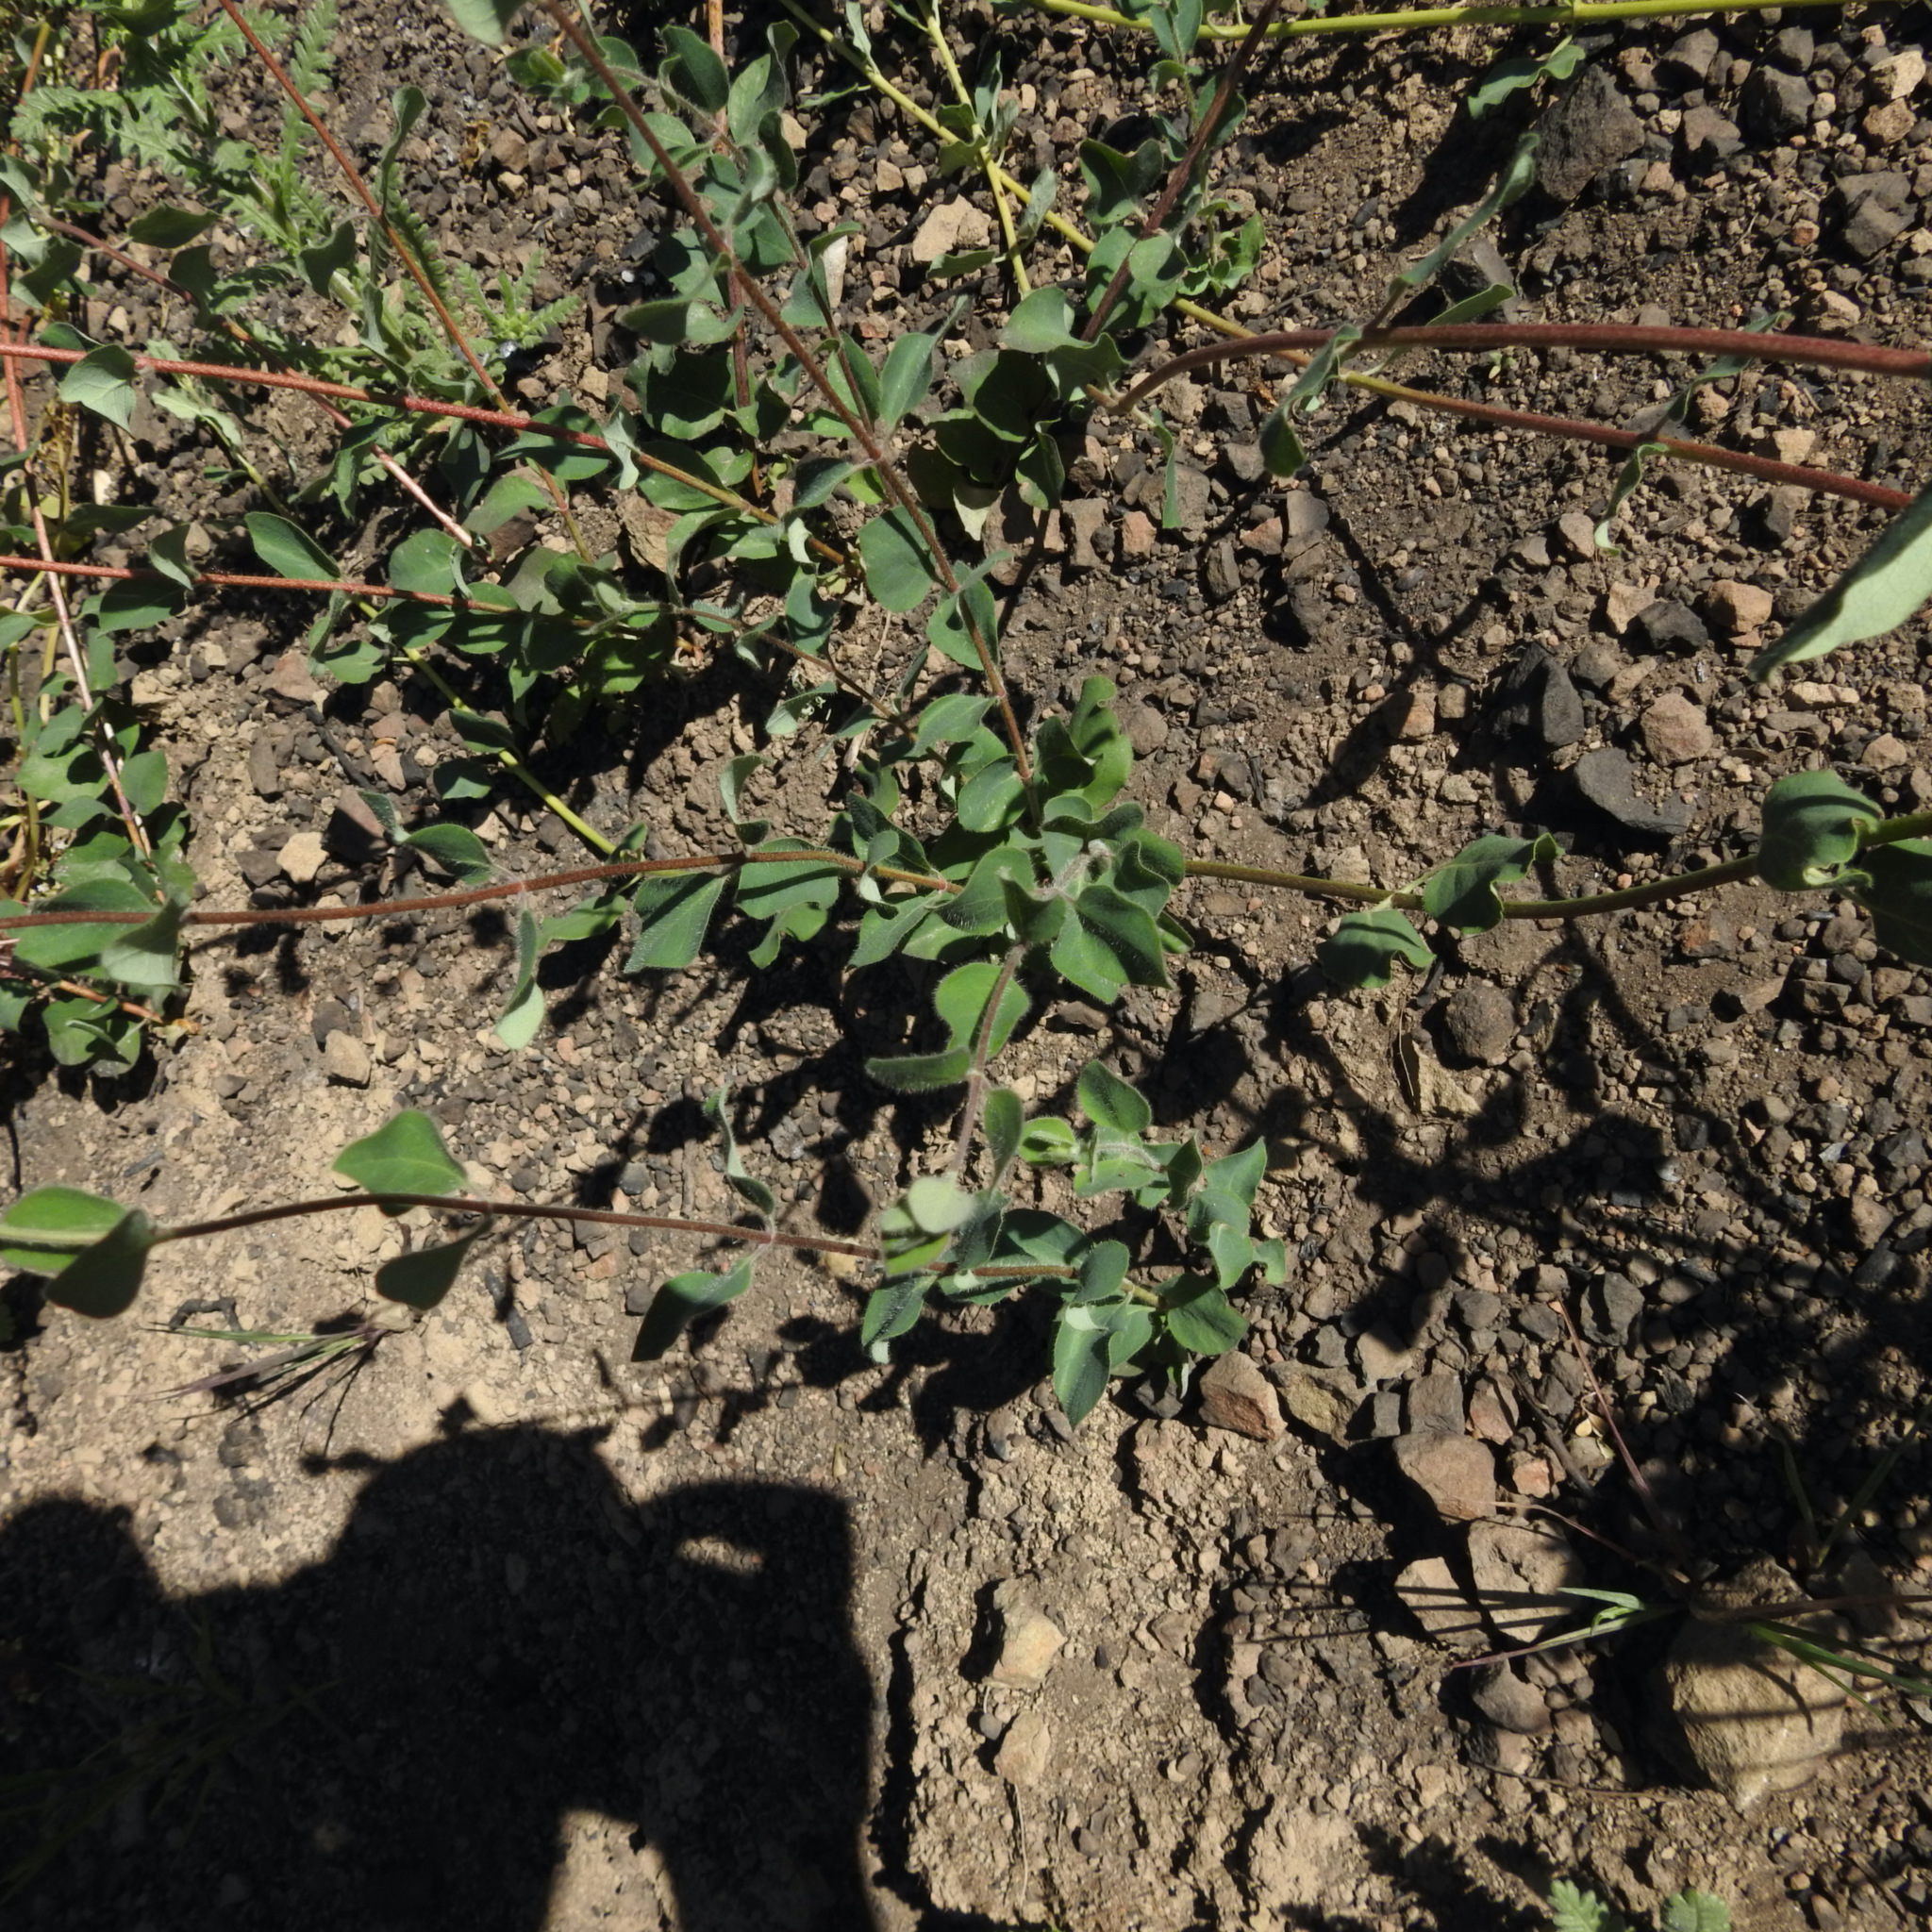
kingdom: Plantae
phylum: Tracheophyta
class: Magnoliopsida
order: Dipsacales
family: Caprifoliaceae
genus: Lonicera
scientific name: Lonicera interrupta
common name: Chaparral honeysuckle
